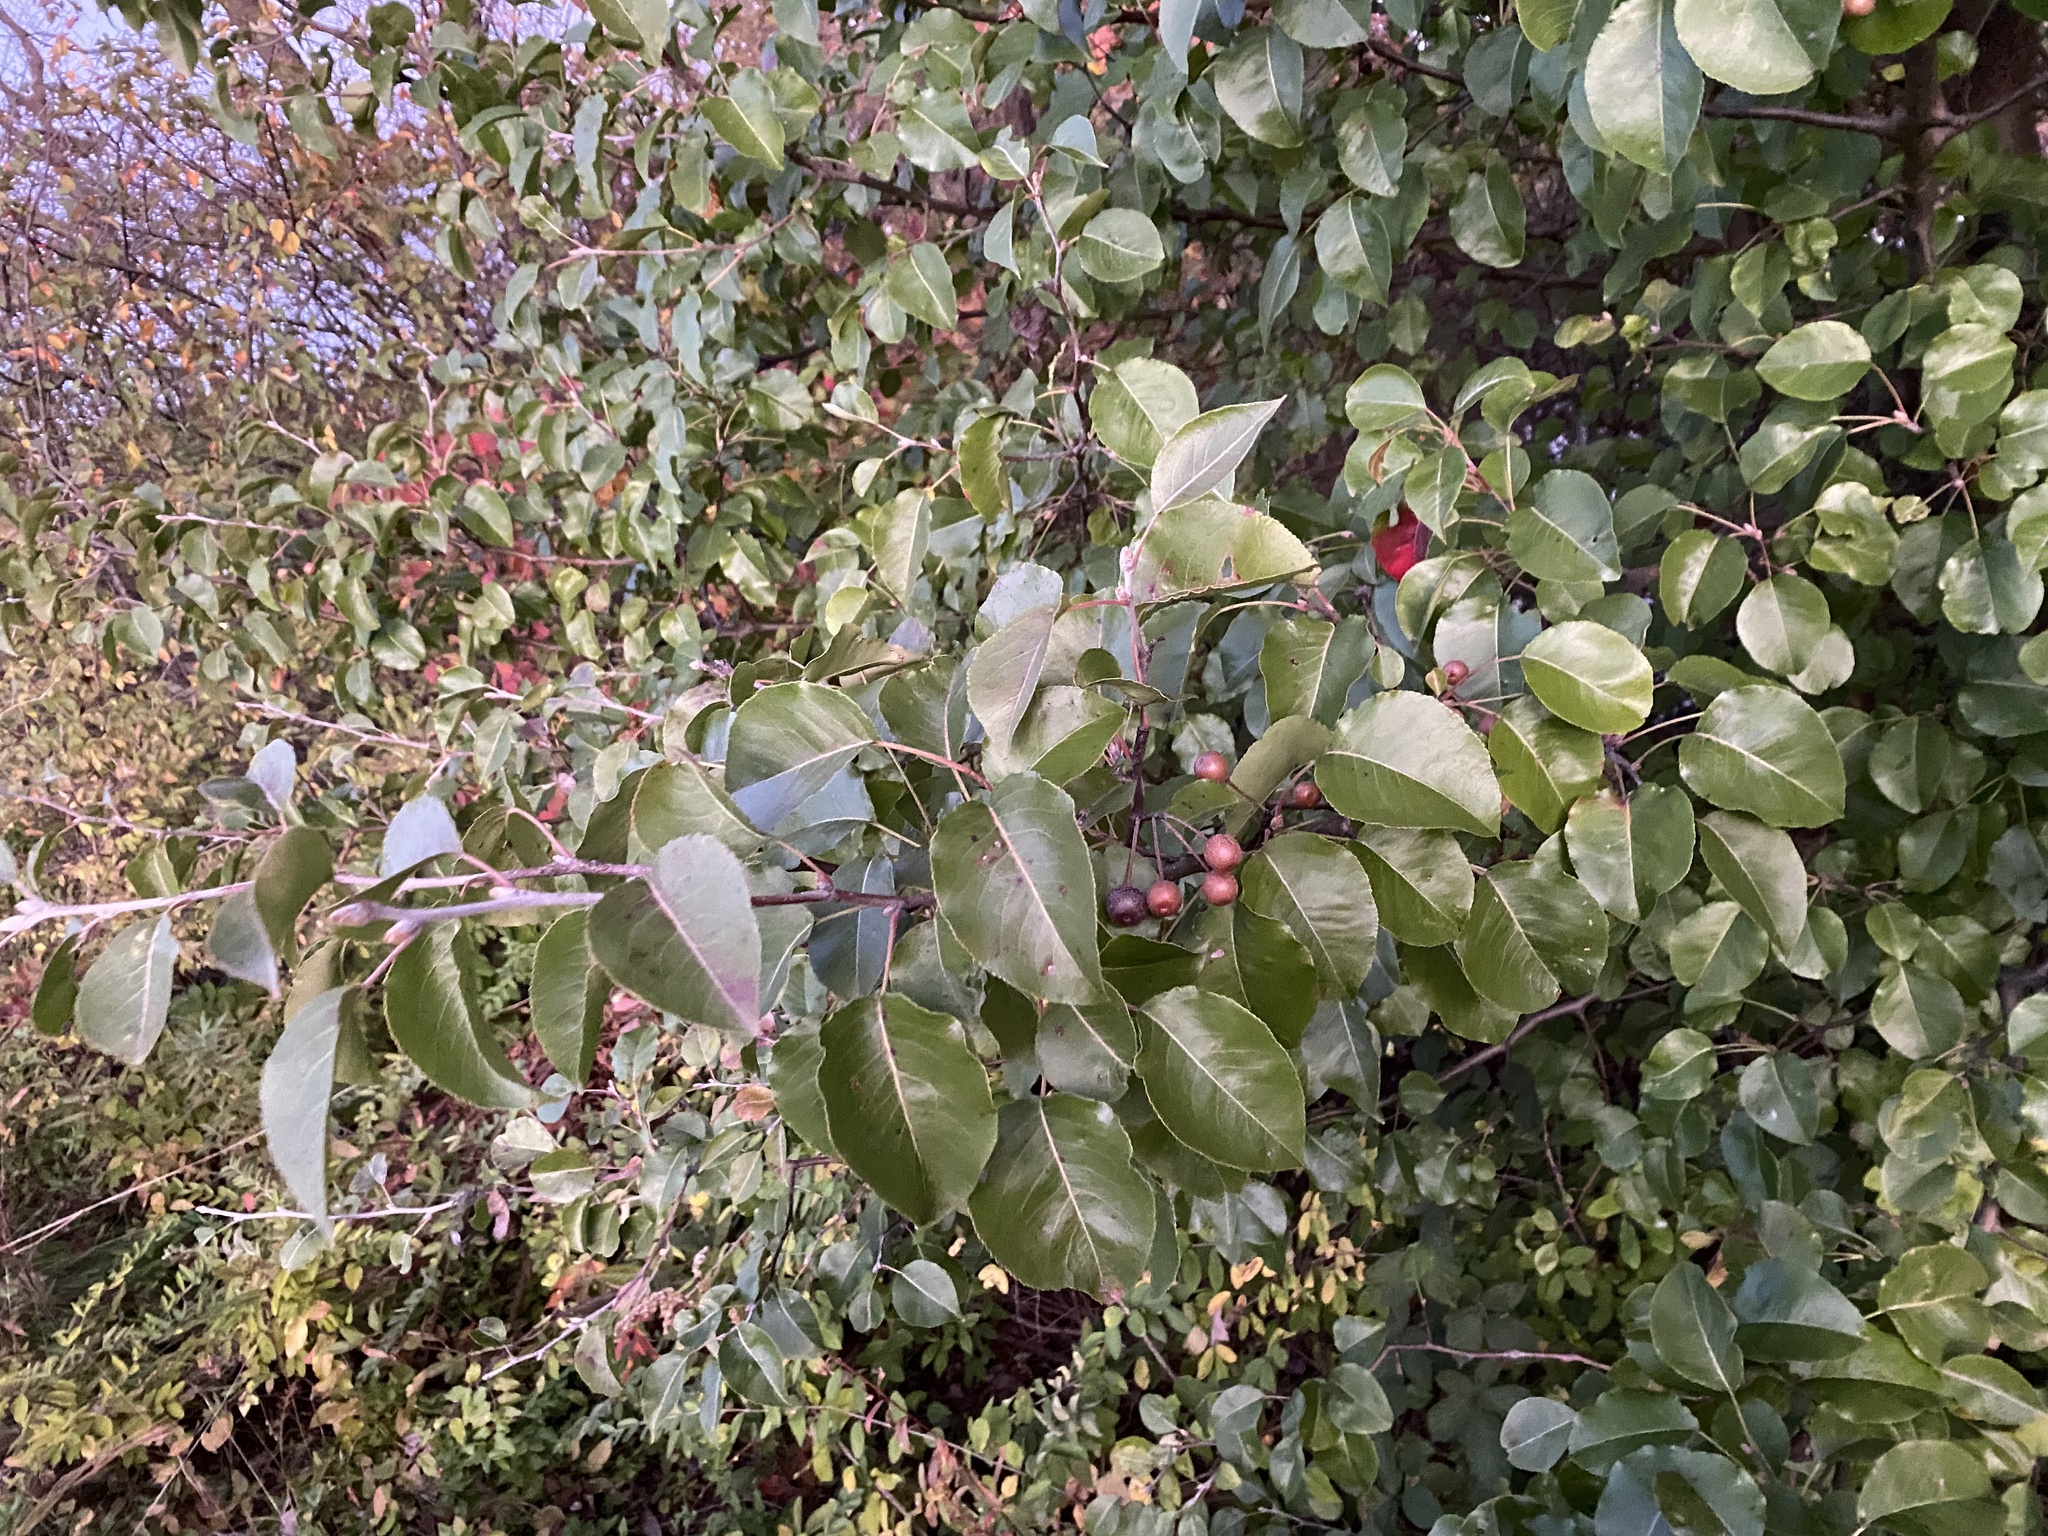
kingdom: Plantae
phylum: Tracheophyta
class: Magnoliopsida
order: Rosales
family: Rosaceae
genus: Pyrus
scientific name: Pyrus calleryana
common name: Callery pear
